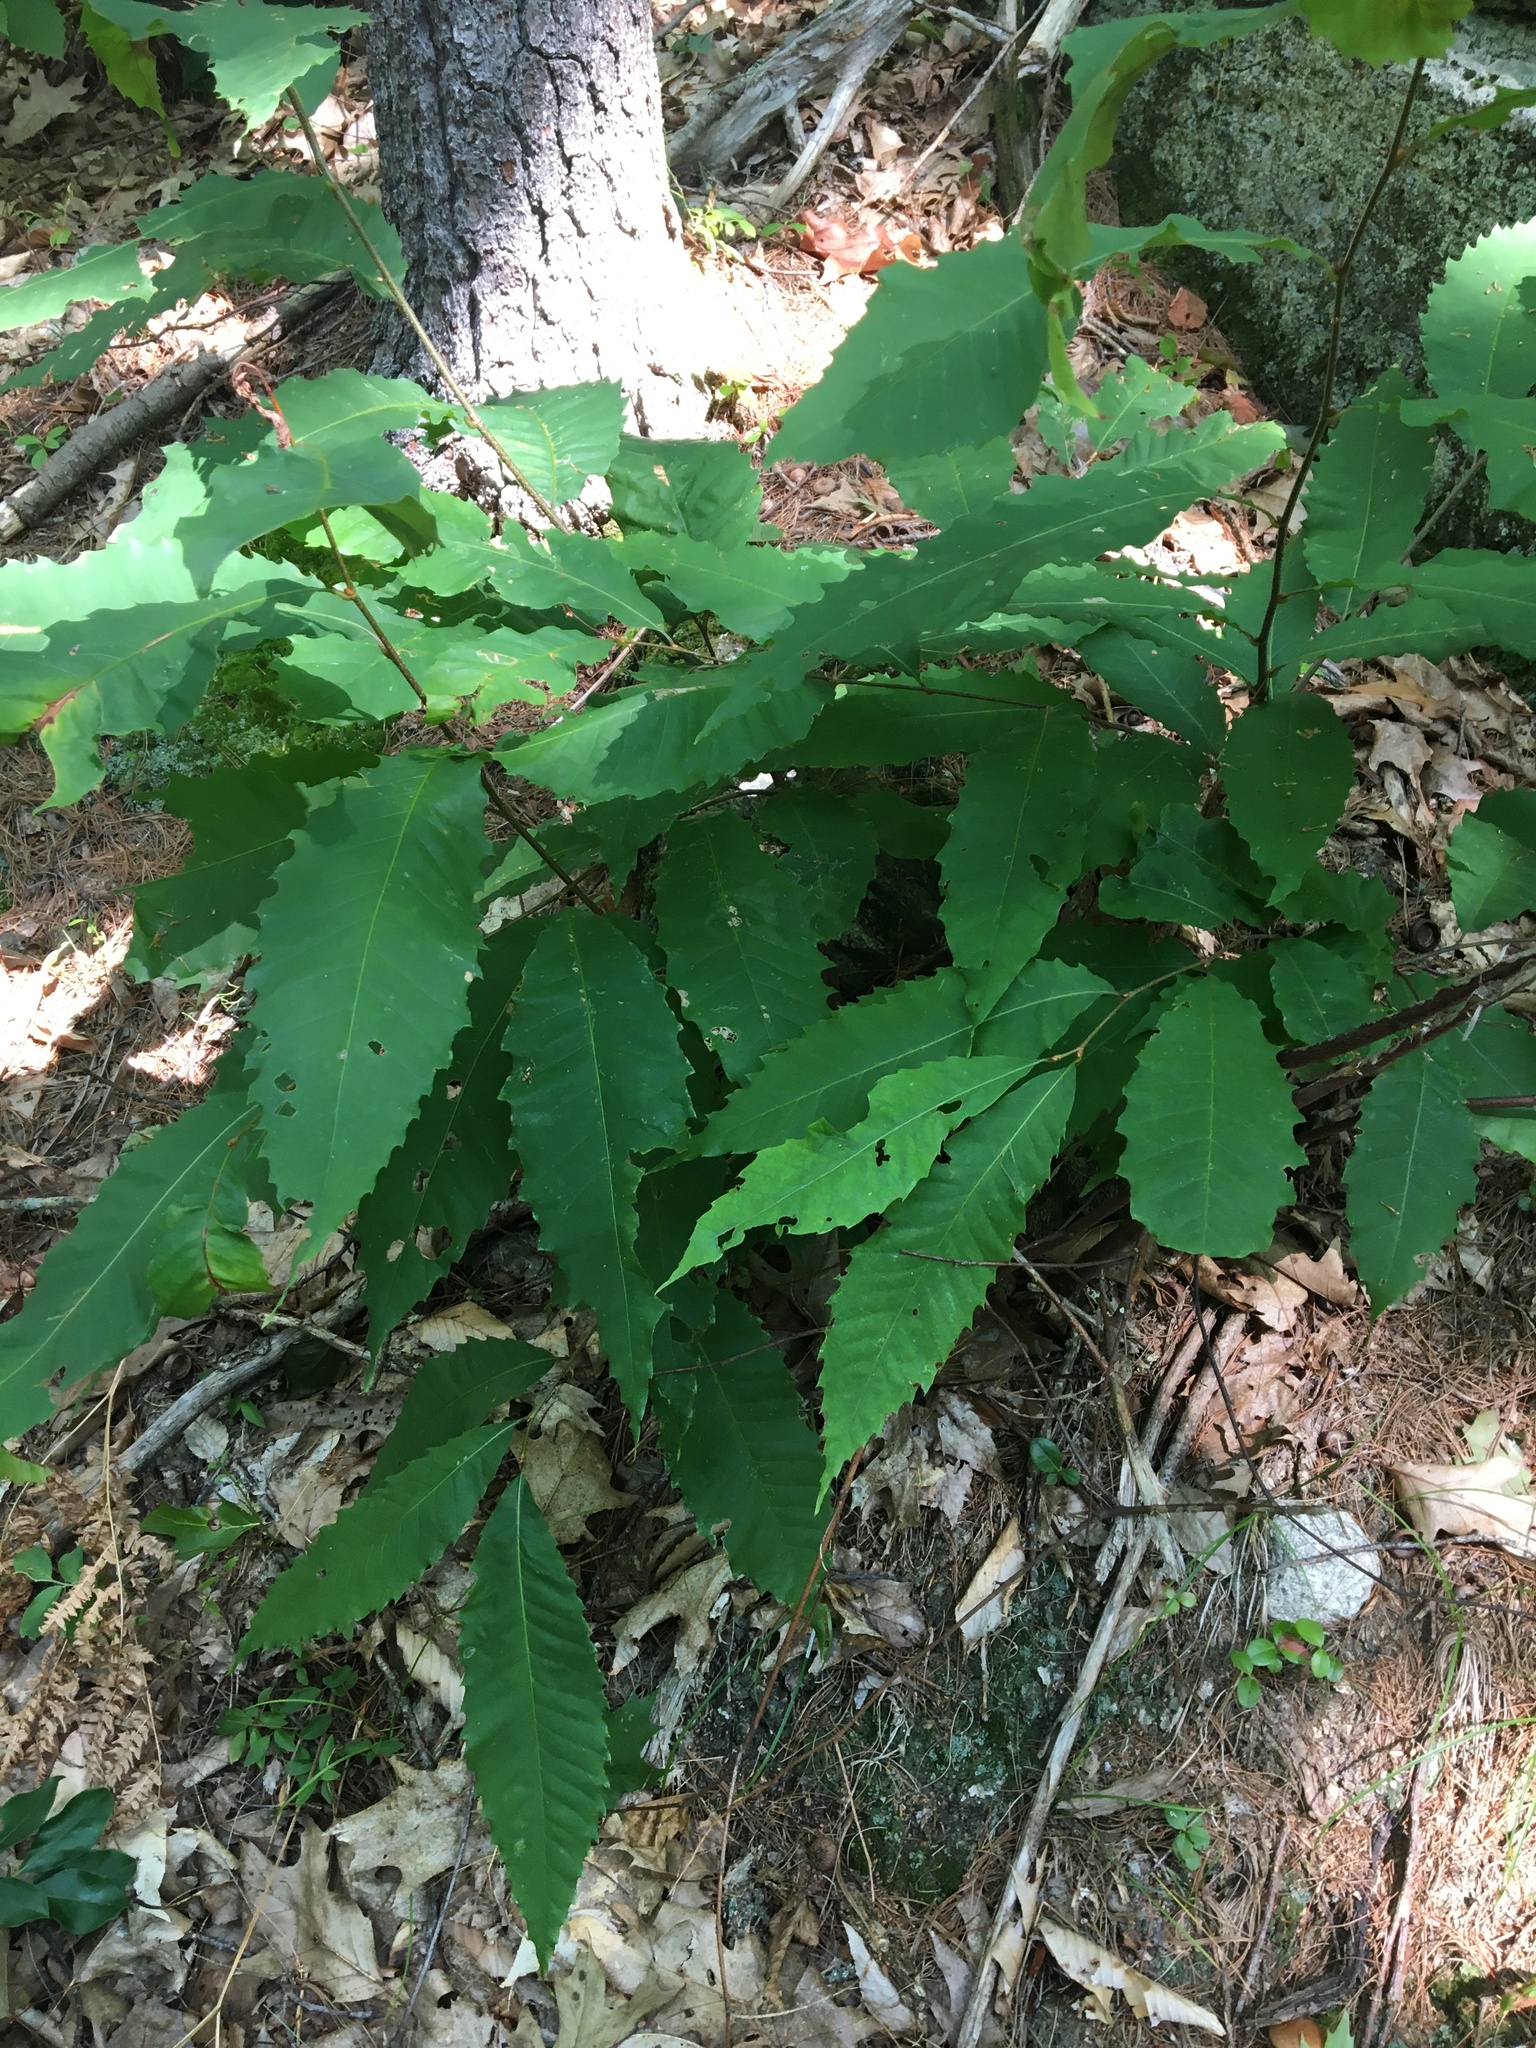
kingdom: Plantae
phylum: Tracheophyta
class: Magnoliopsida
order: Fagales
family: Fagaceae
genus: Castanea
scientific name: Castanea dentata
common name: American chestnut
